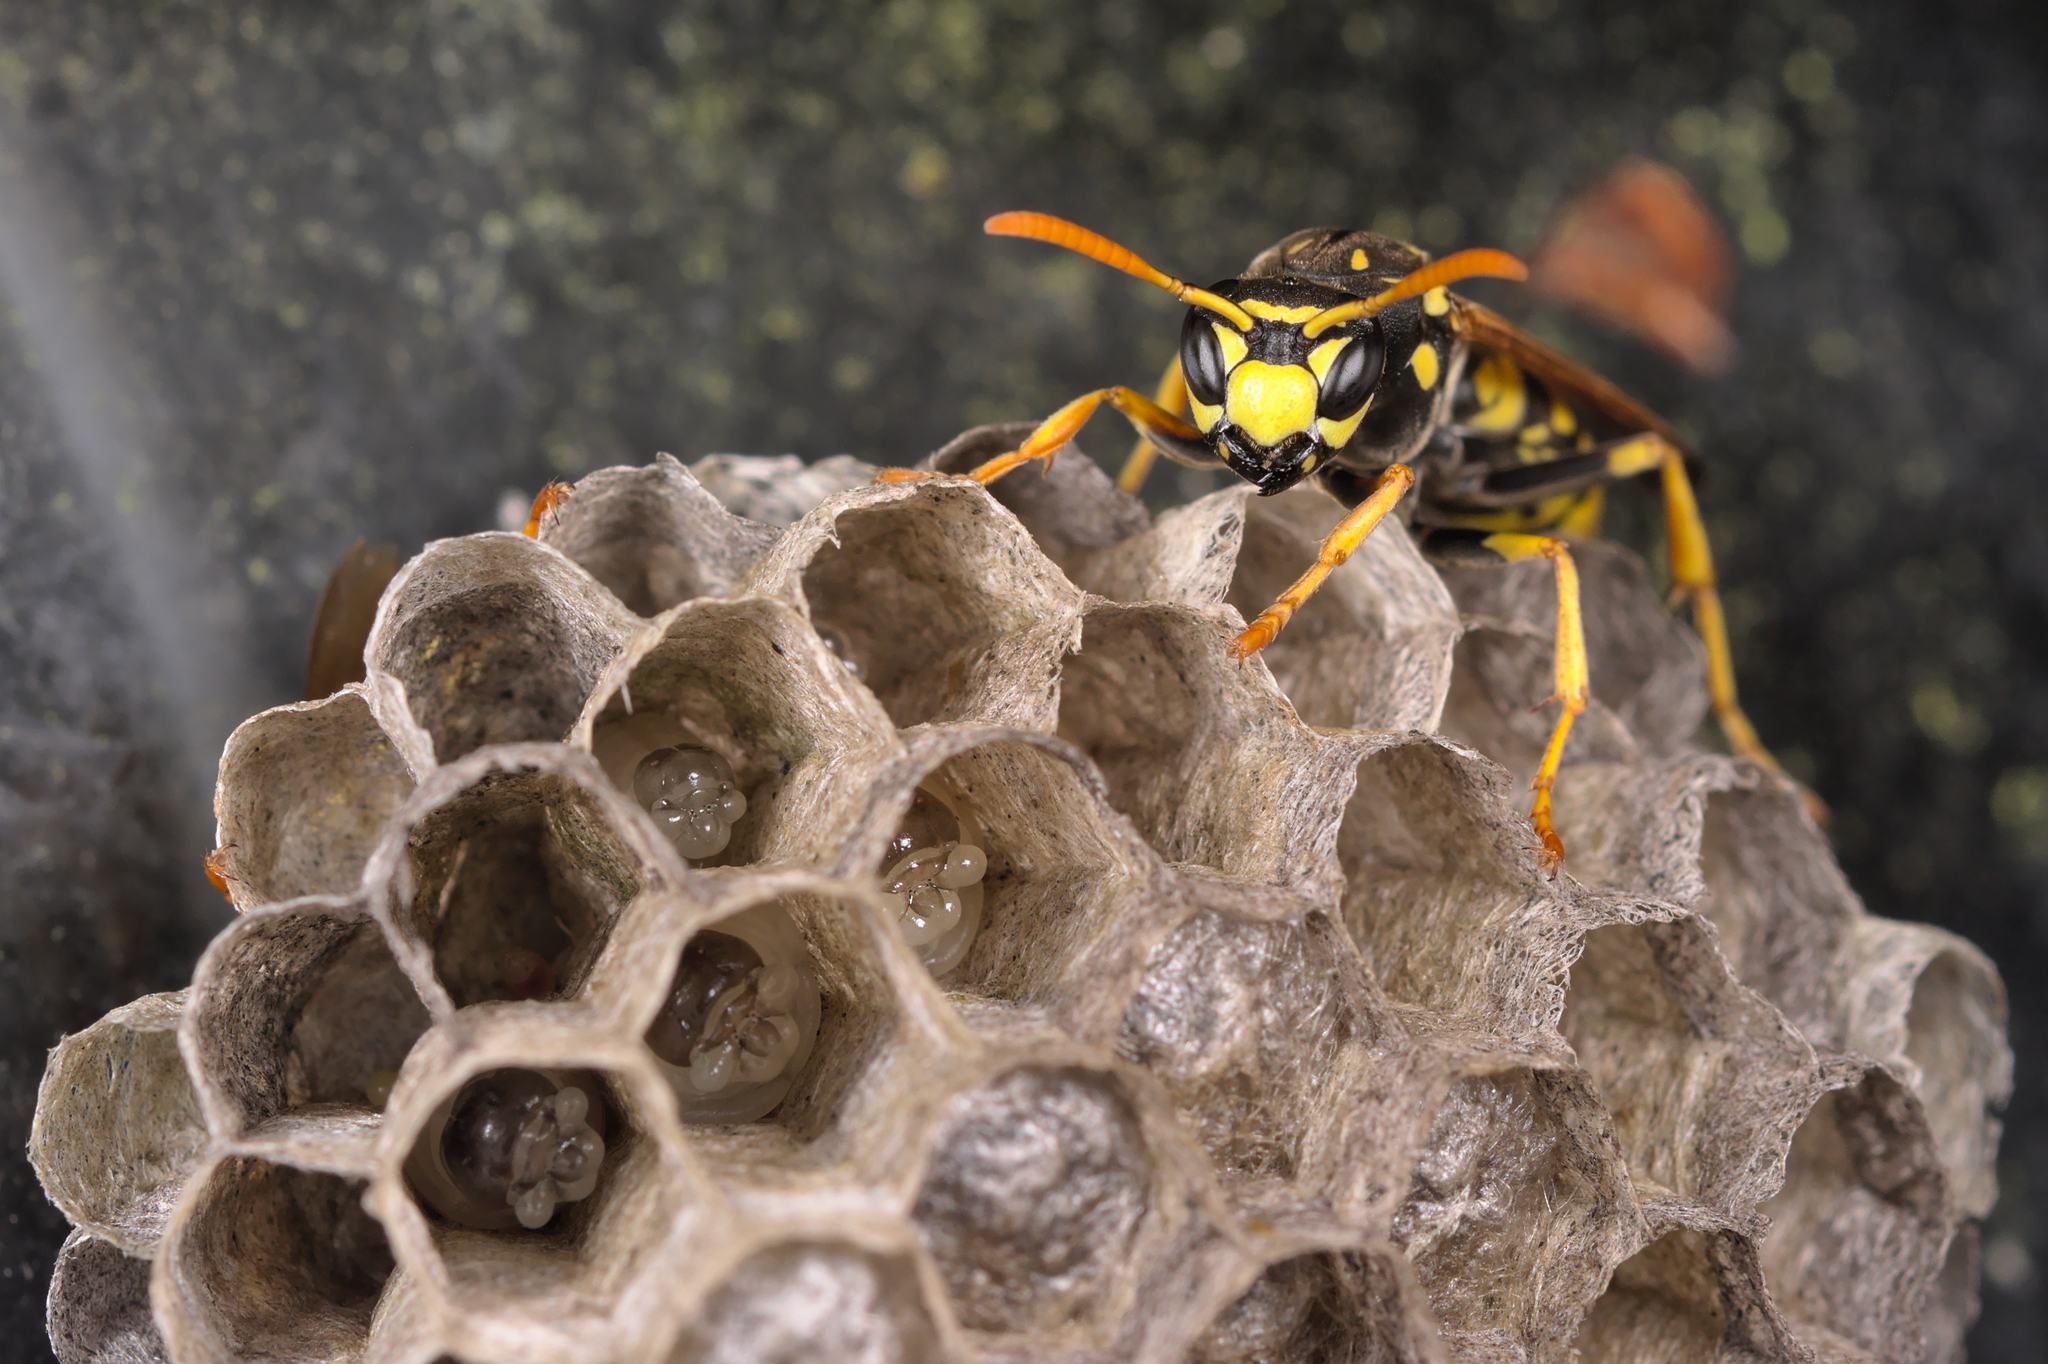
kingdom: Animalia
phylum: Arthropoda
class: Insecta
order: Hymenoptera
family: Eumenidae
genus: Polistes
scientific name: Polistes dominula
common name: Paper wasp
